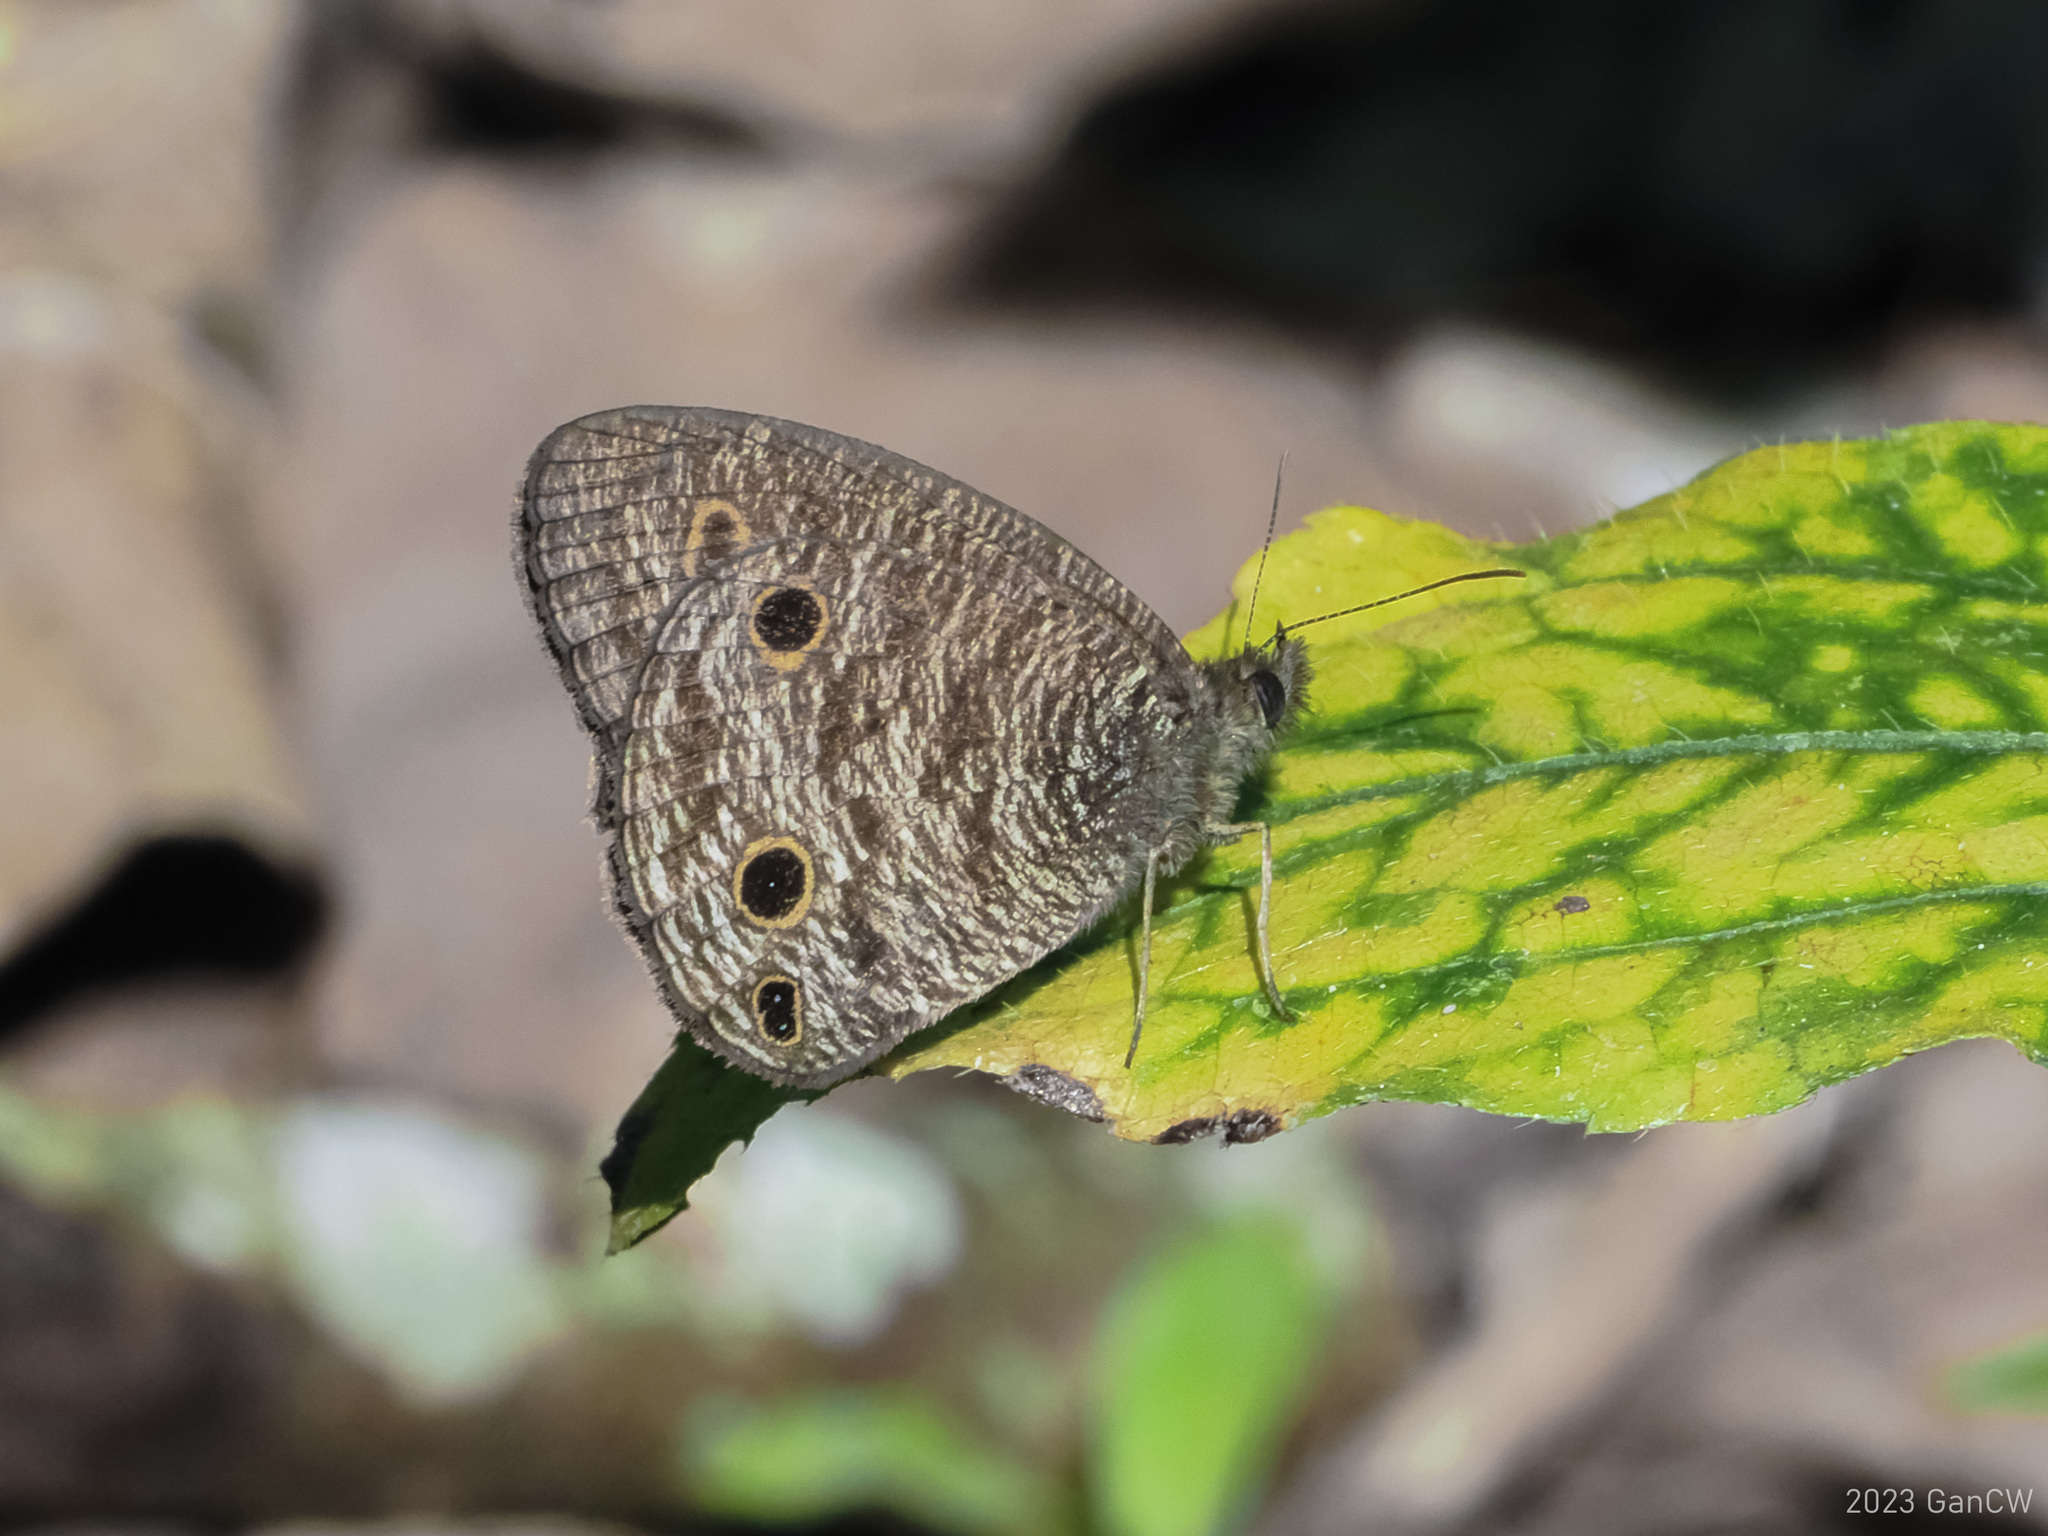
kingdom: Animalia
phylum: Arthropoda
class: Insecta
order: Lepidoptera
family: Nymphalidae
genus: Ypthima
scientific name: Ypthima pandocus
